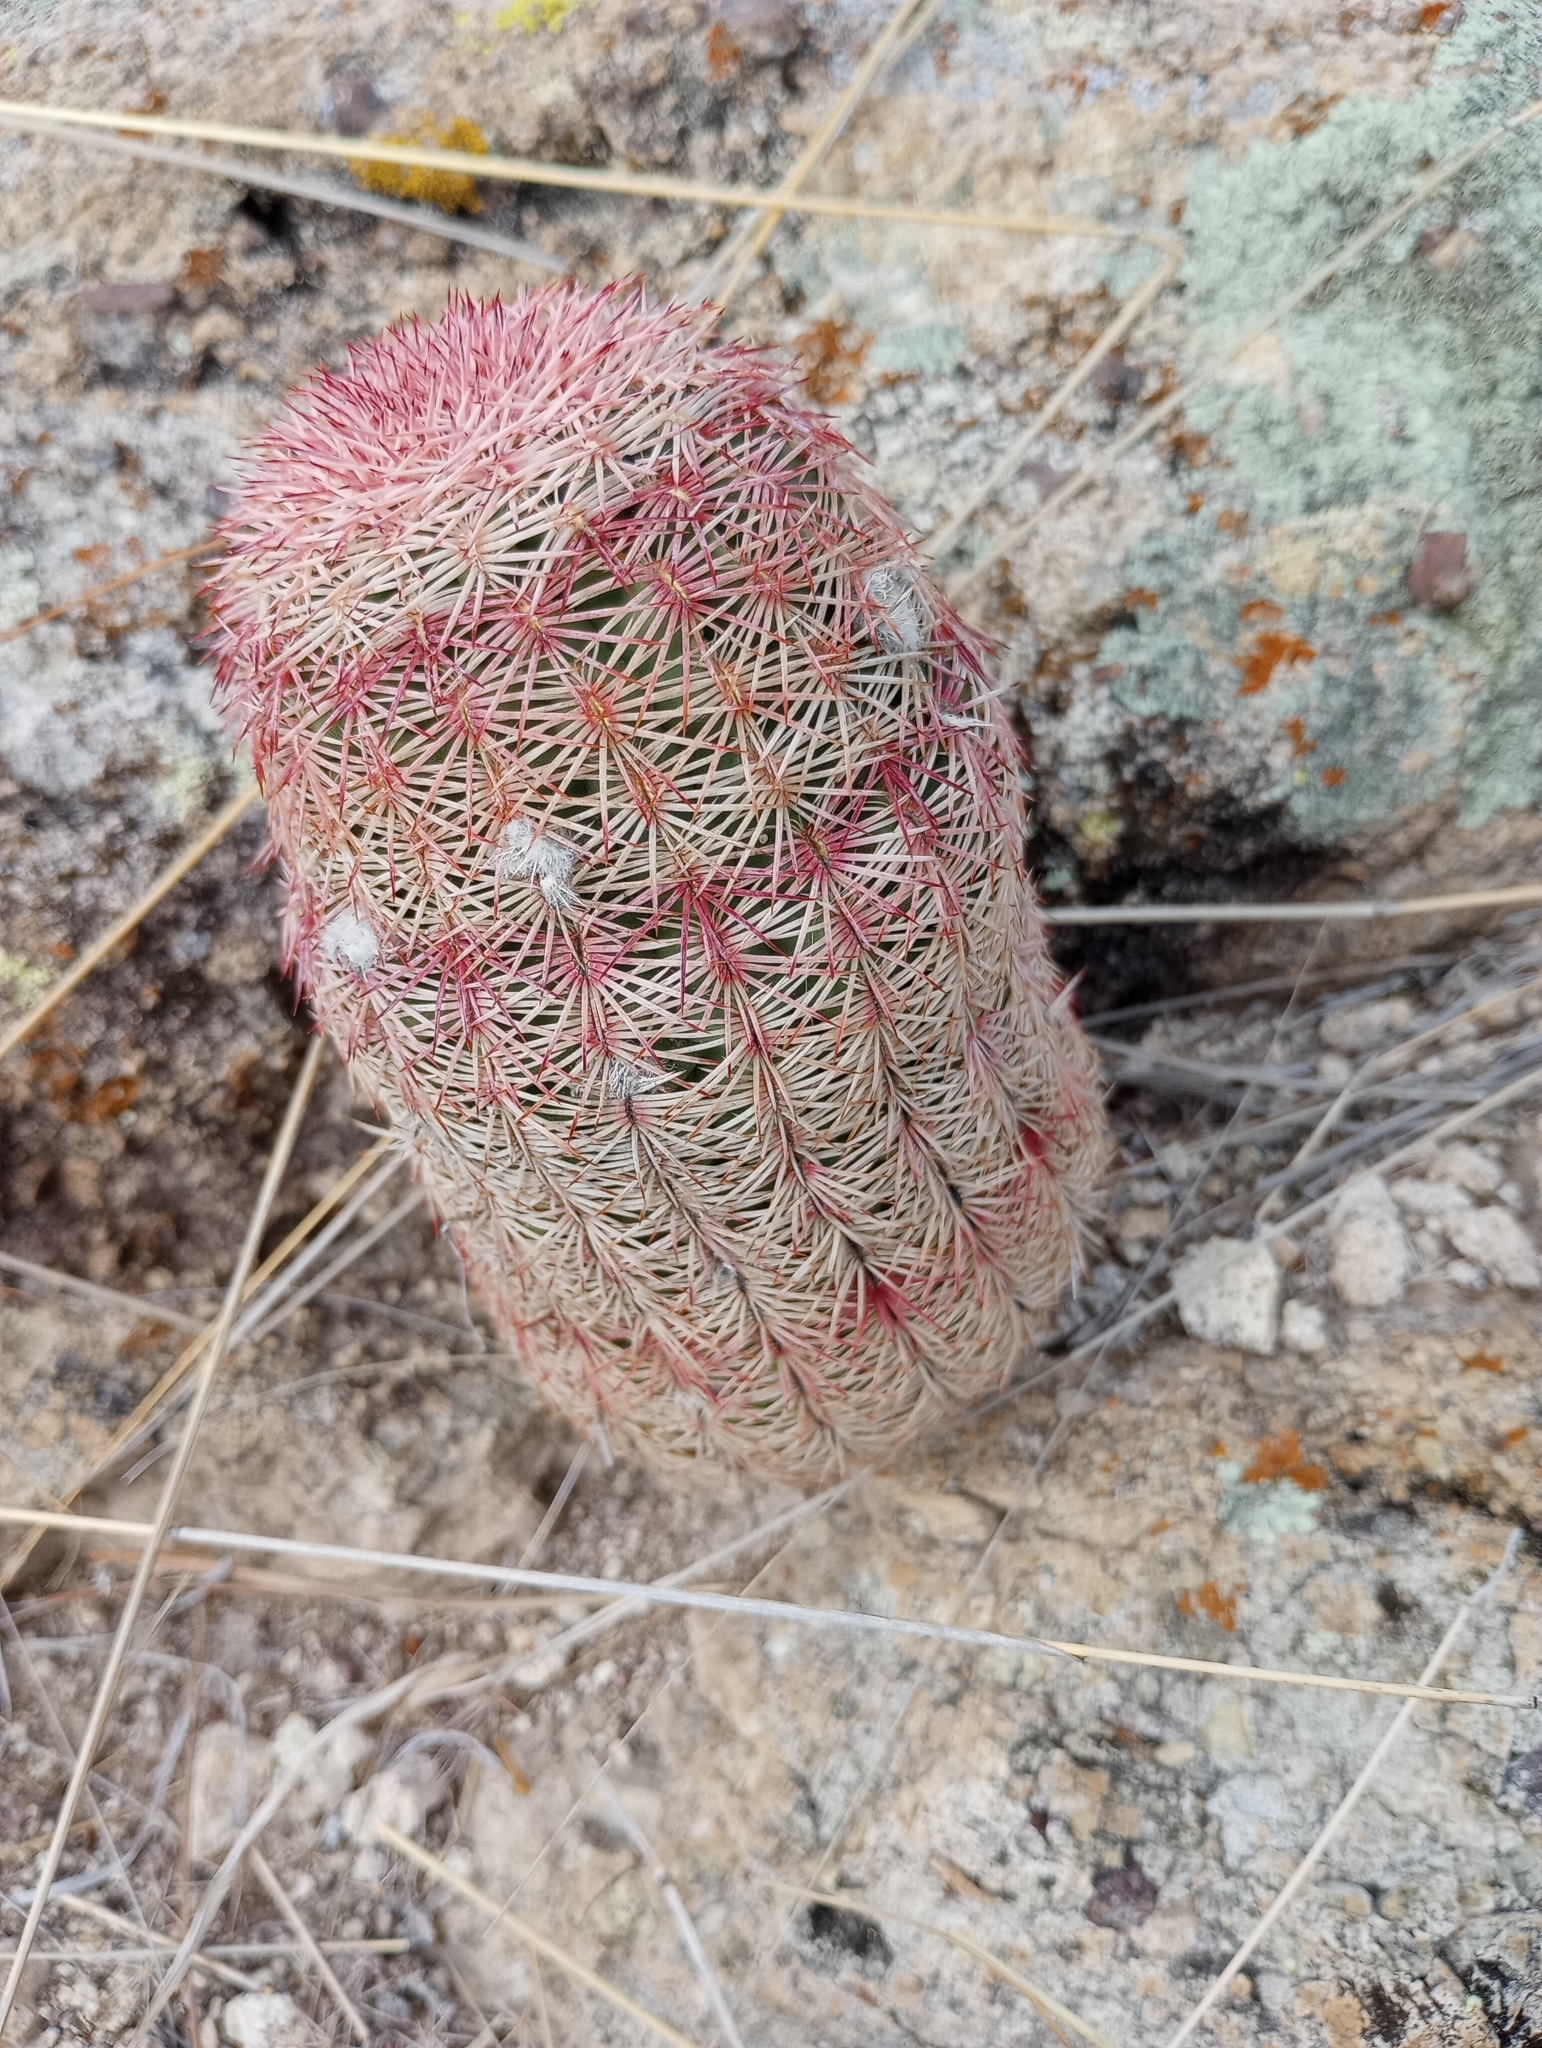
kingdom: Plantae
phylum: Tracheophyta
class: Magnoliopsida
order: Caryophyllales
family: Cactaceae
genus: Echinocereus
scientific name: Echinocereus rigidissimus
